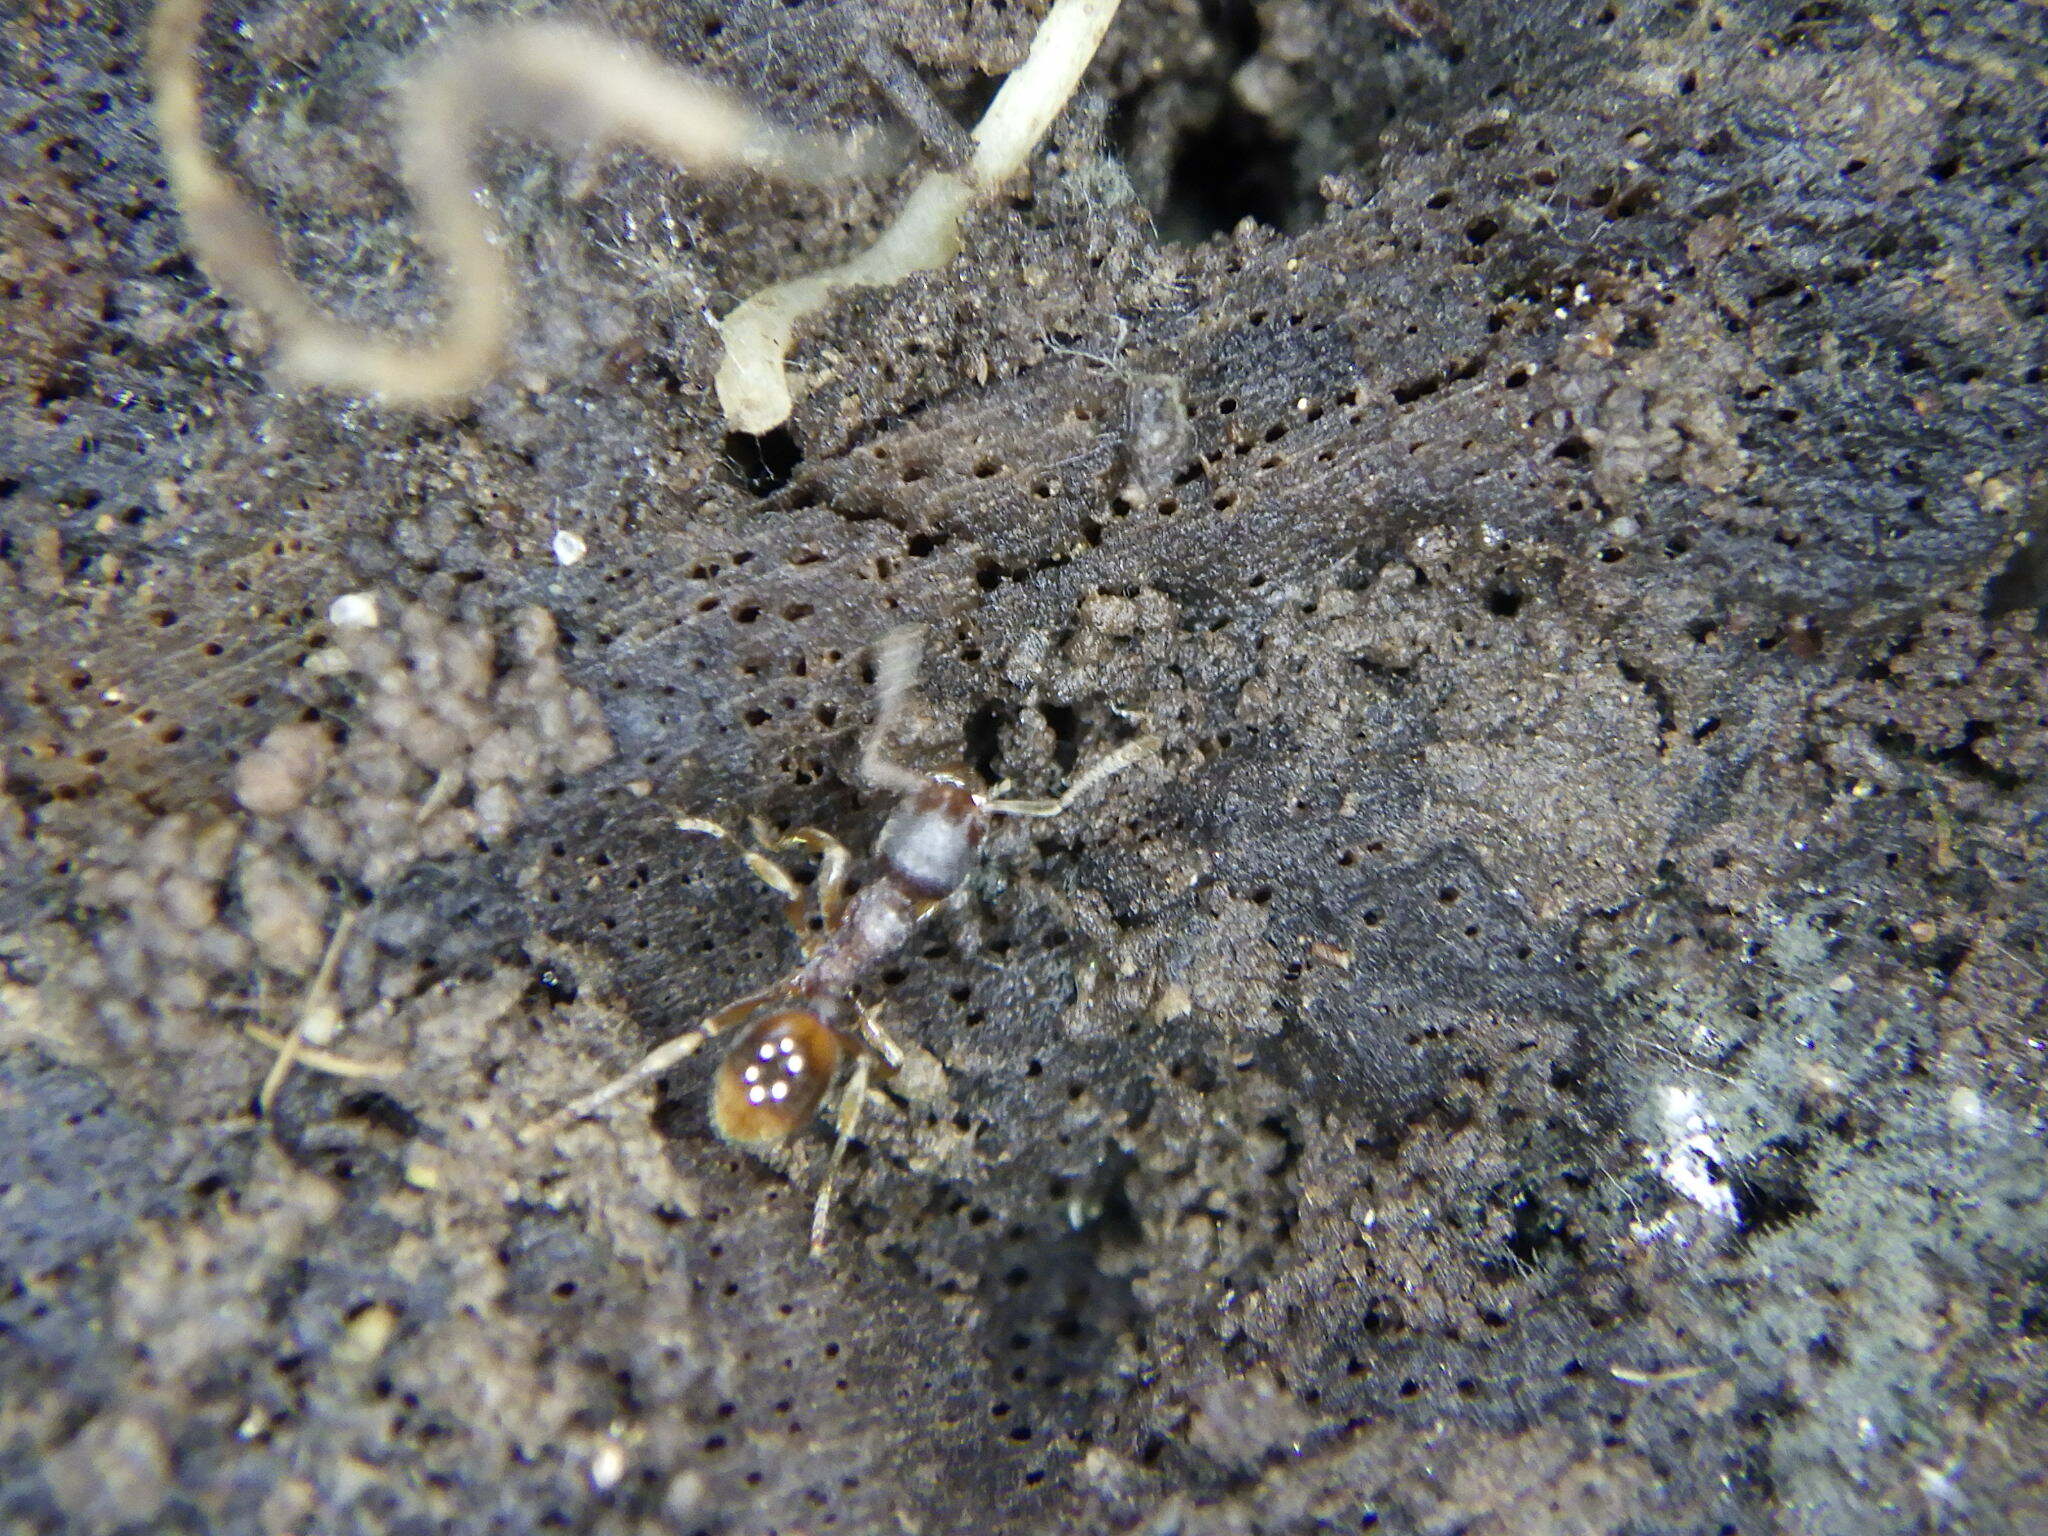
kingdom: Animalia
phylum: Arthropoda
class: Insecta
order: Hymenoptera
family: Formicidae
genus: Stenamma
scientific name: Stenamma
